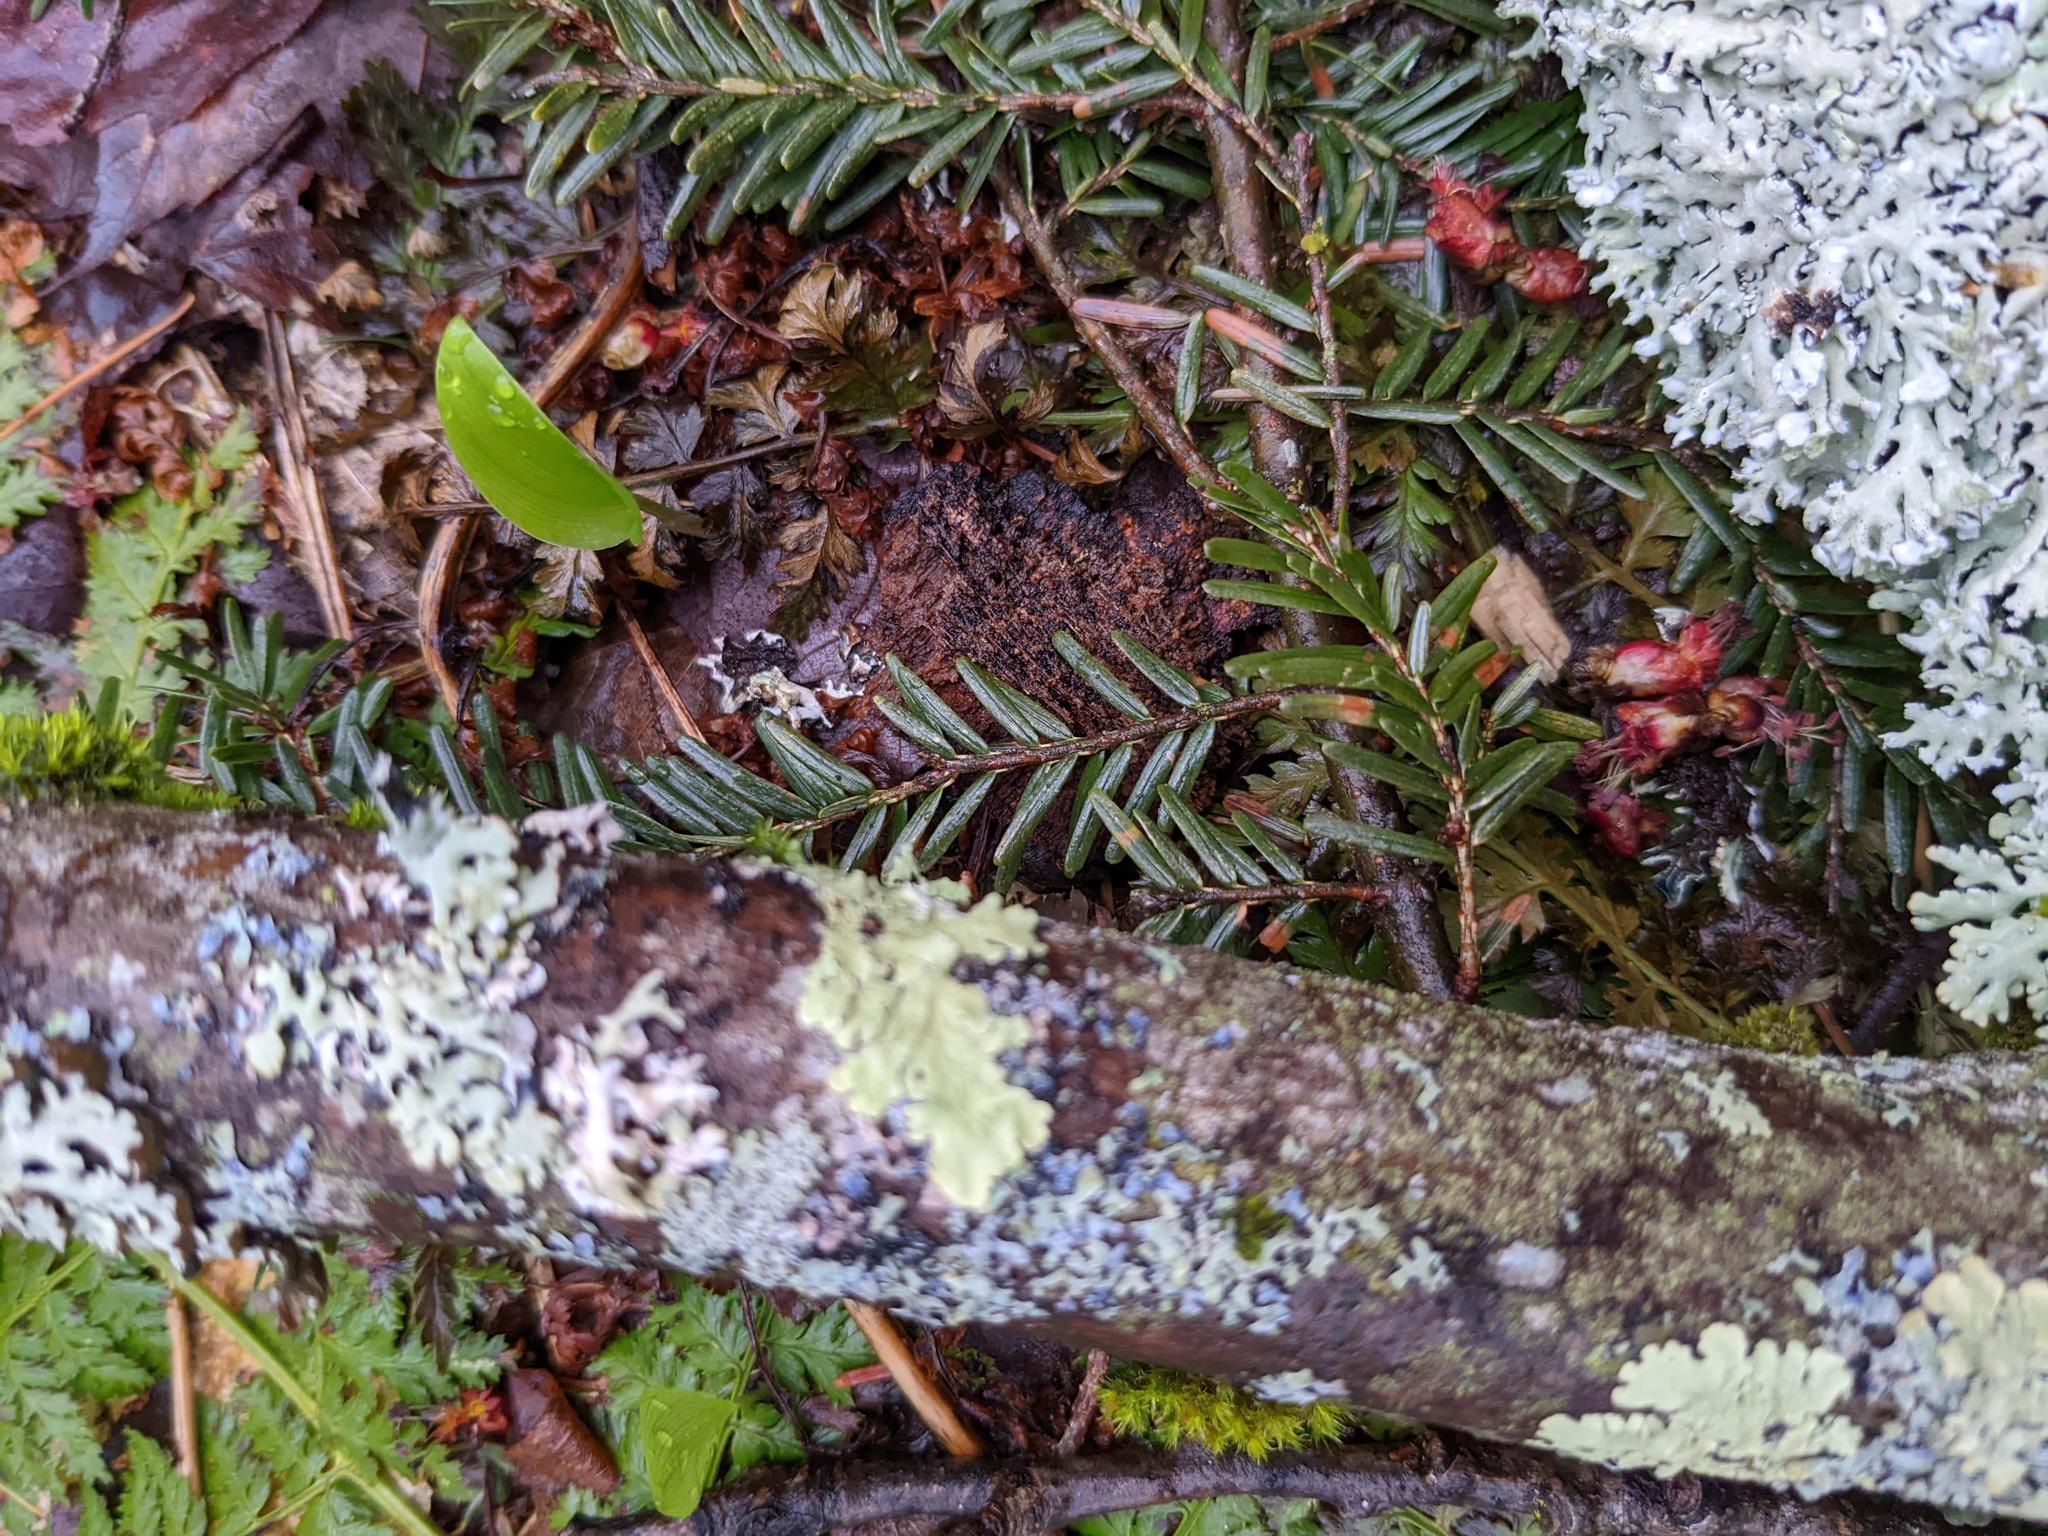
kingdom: Plantae
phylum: Tracheophyta
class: Pinopsida
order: Pinales
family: Pinaceae
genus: Tsuga
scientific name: Tsuga canadensis
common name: Eastern hemlock
